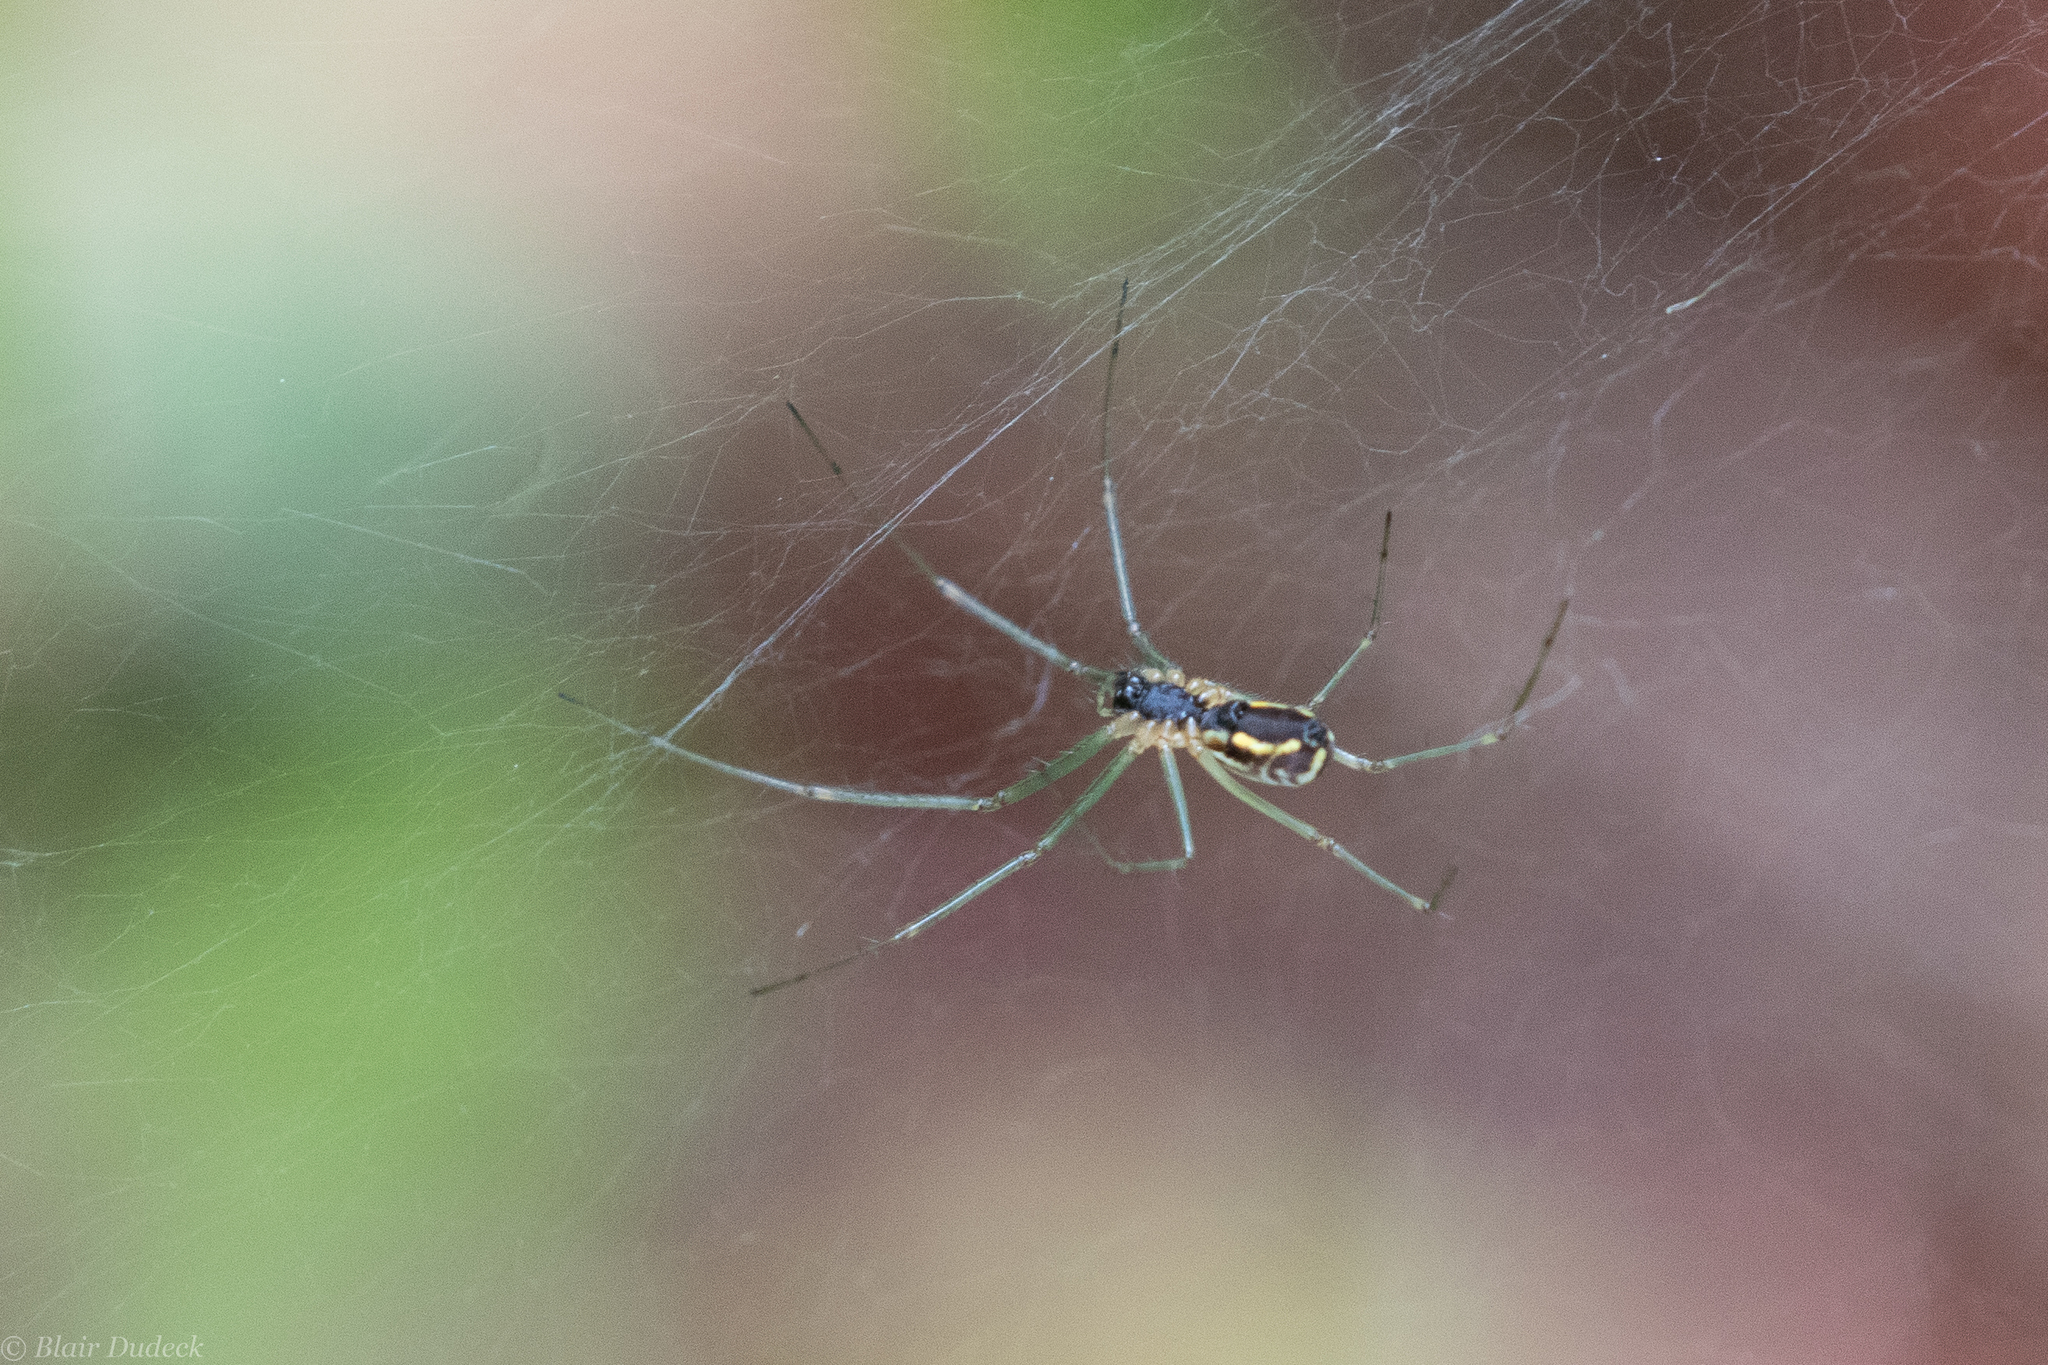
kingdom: Animalia
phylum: Arthropoda
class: Arachnida
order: Araneae
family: Linyphiidae
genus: Neriene
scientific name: Neriene radiata
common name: Filmy dome spider
